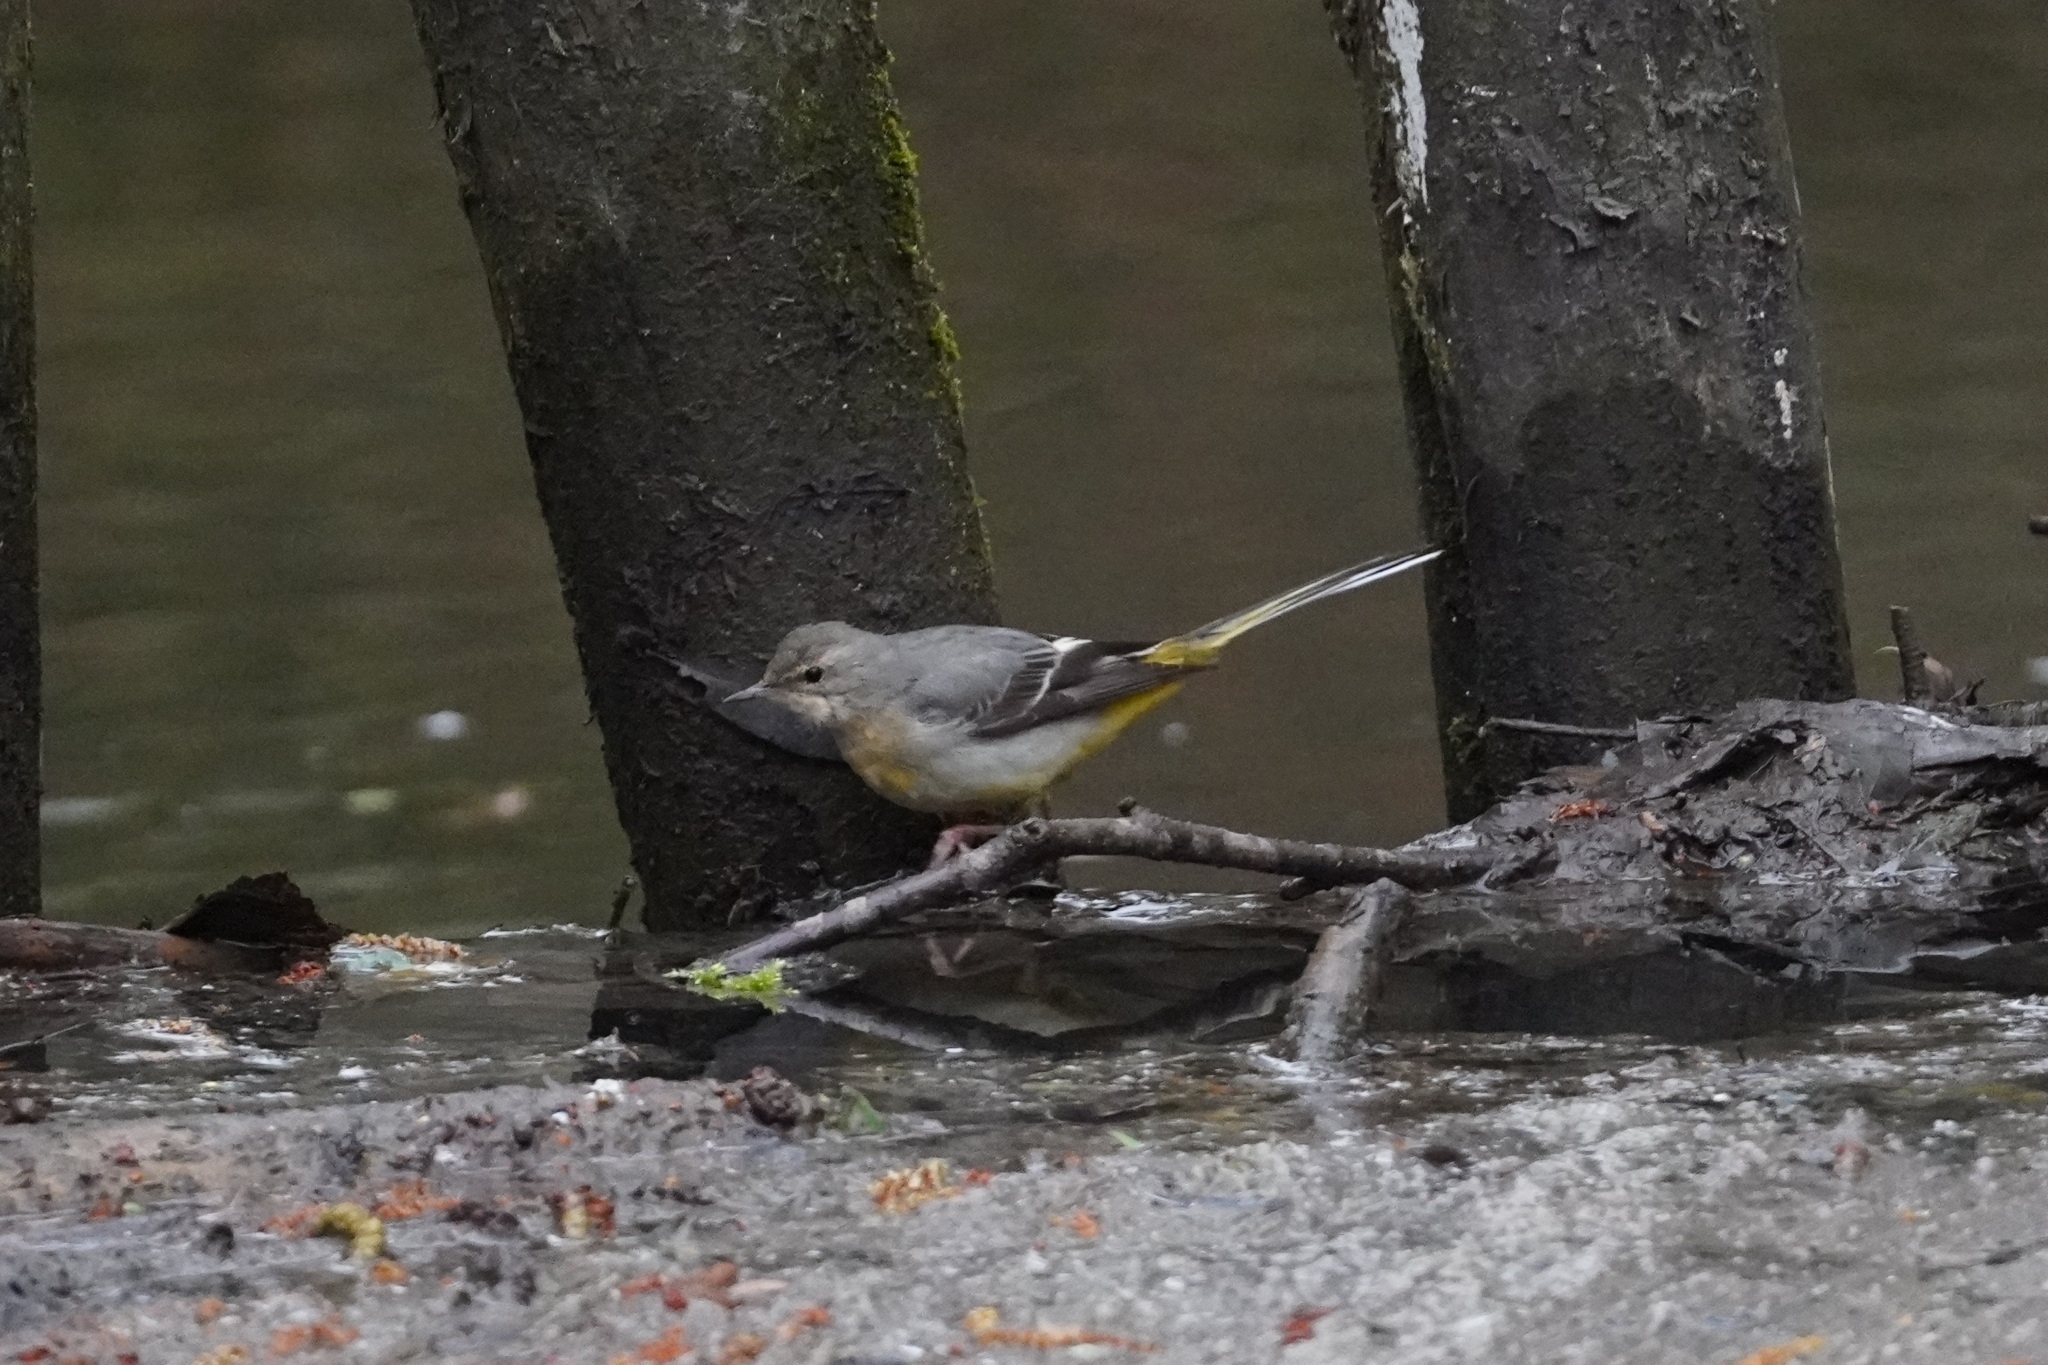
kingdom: Animalia
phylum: Chordata
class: Aves
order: Passeriformes
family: Motacillidae
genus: Motacilla
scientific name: Motacilla cinerea
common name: Grey wagtail
